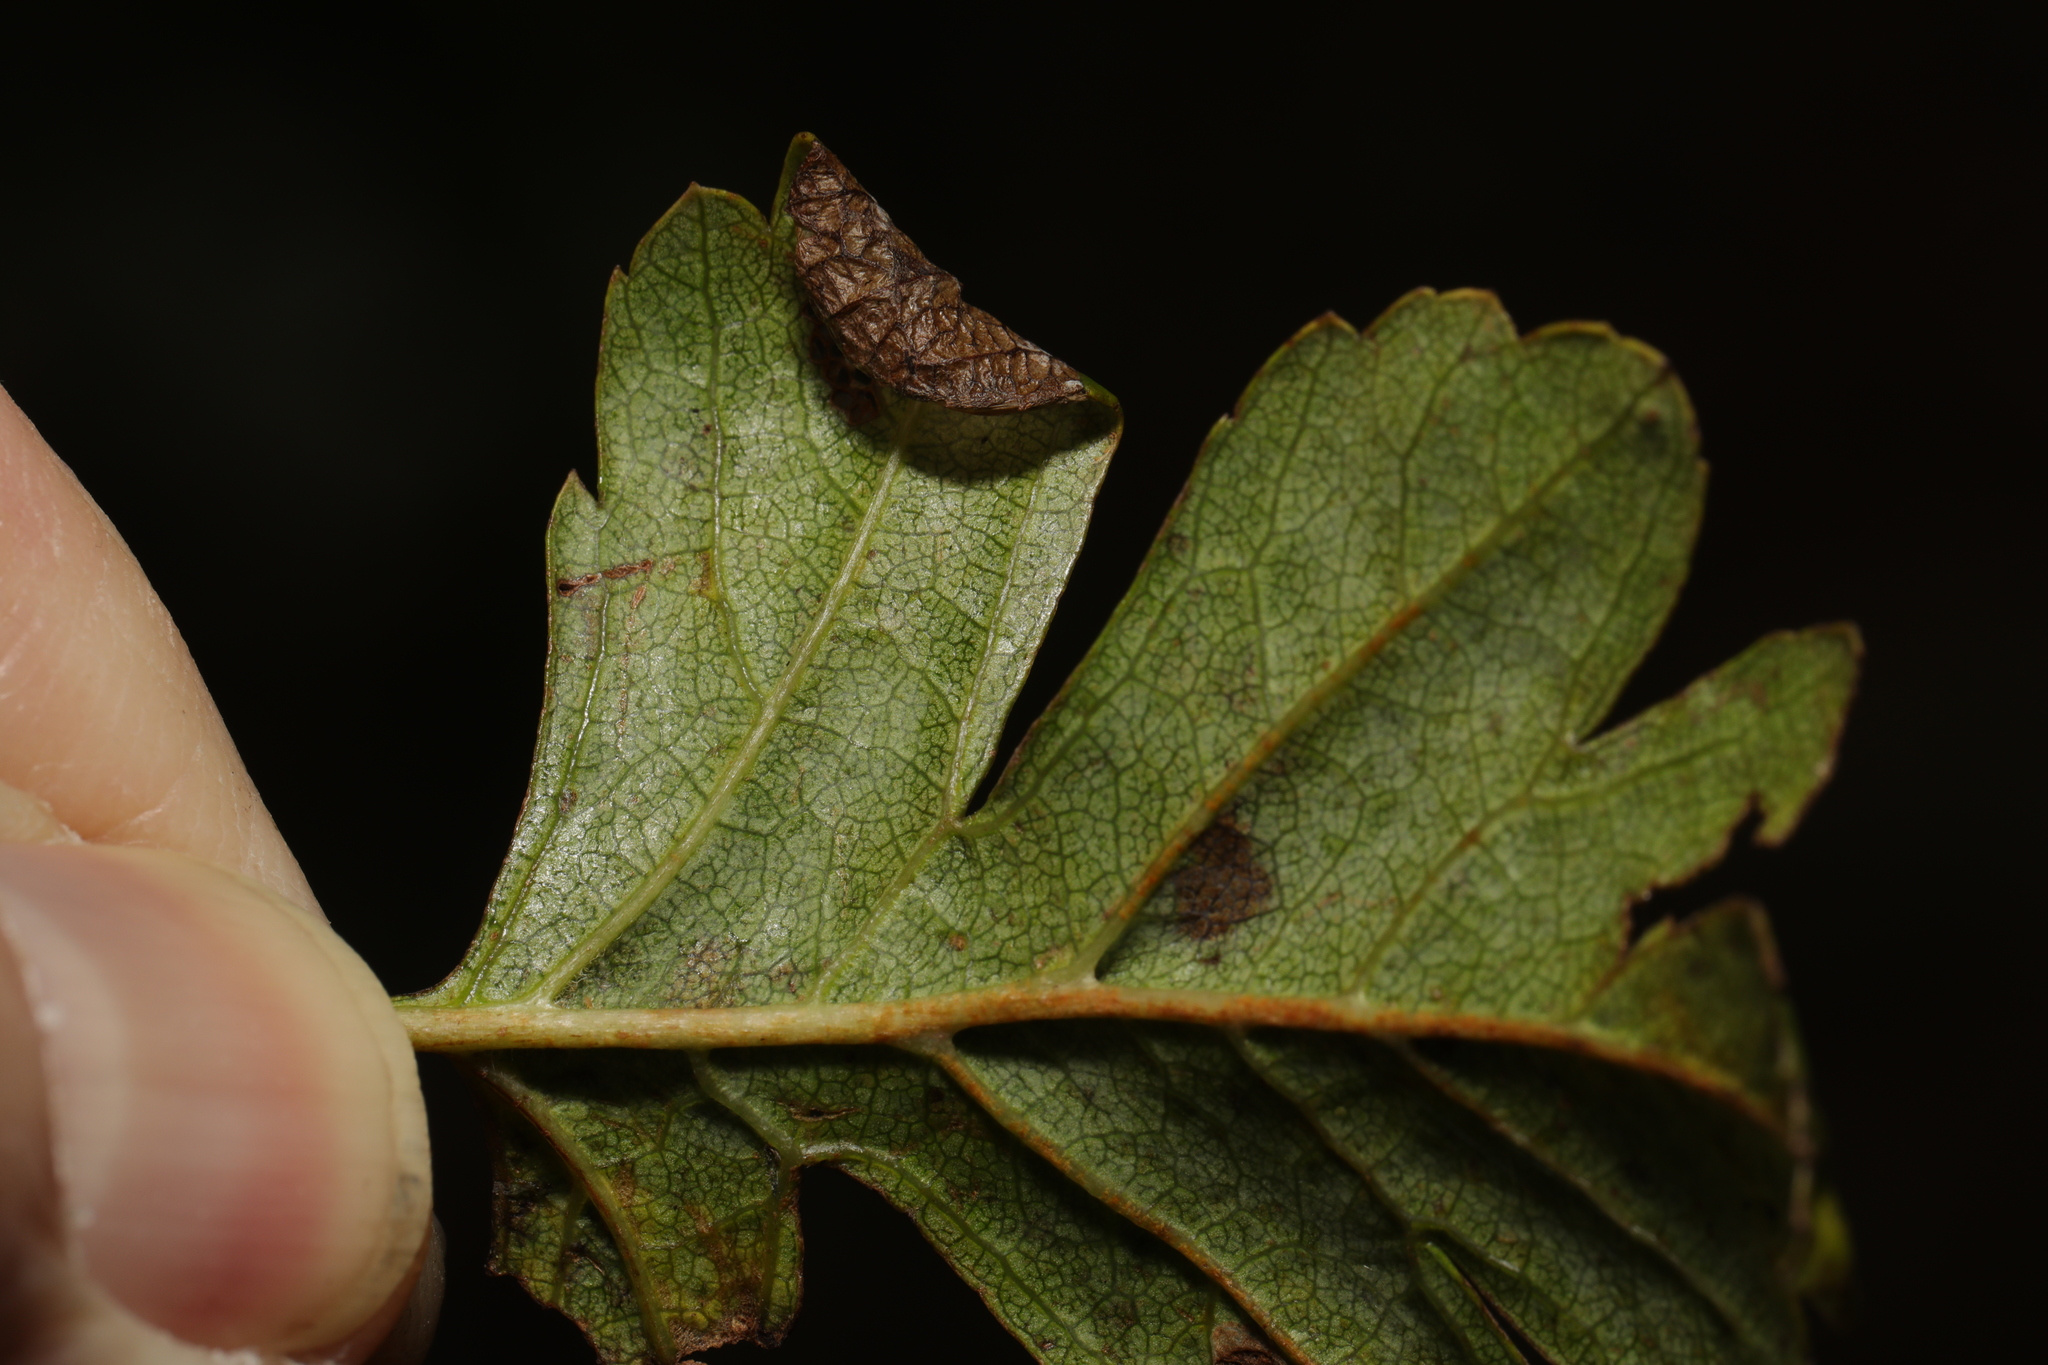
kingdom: Animalia
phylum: Arthropoda
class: Insecta
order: Lepidoptera
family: Gracillariidae
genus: Parornix
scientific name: Parornix anglicella
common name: Hawthorn slender
